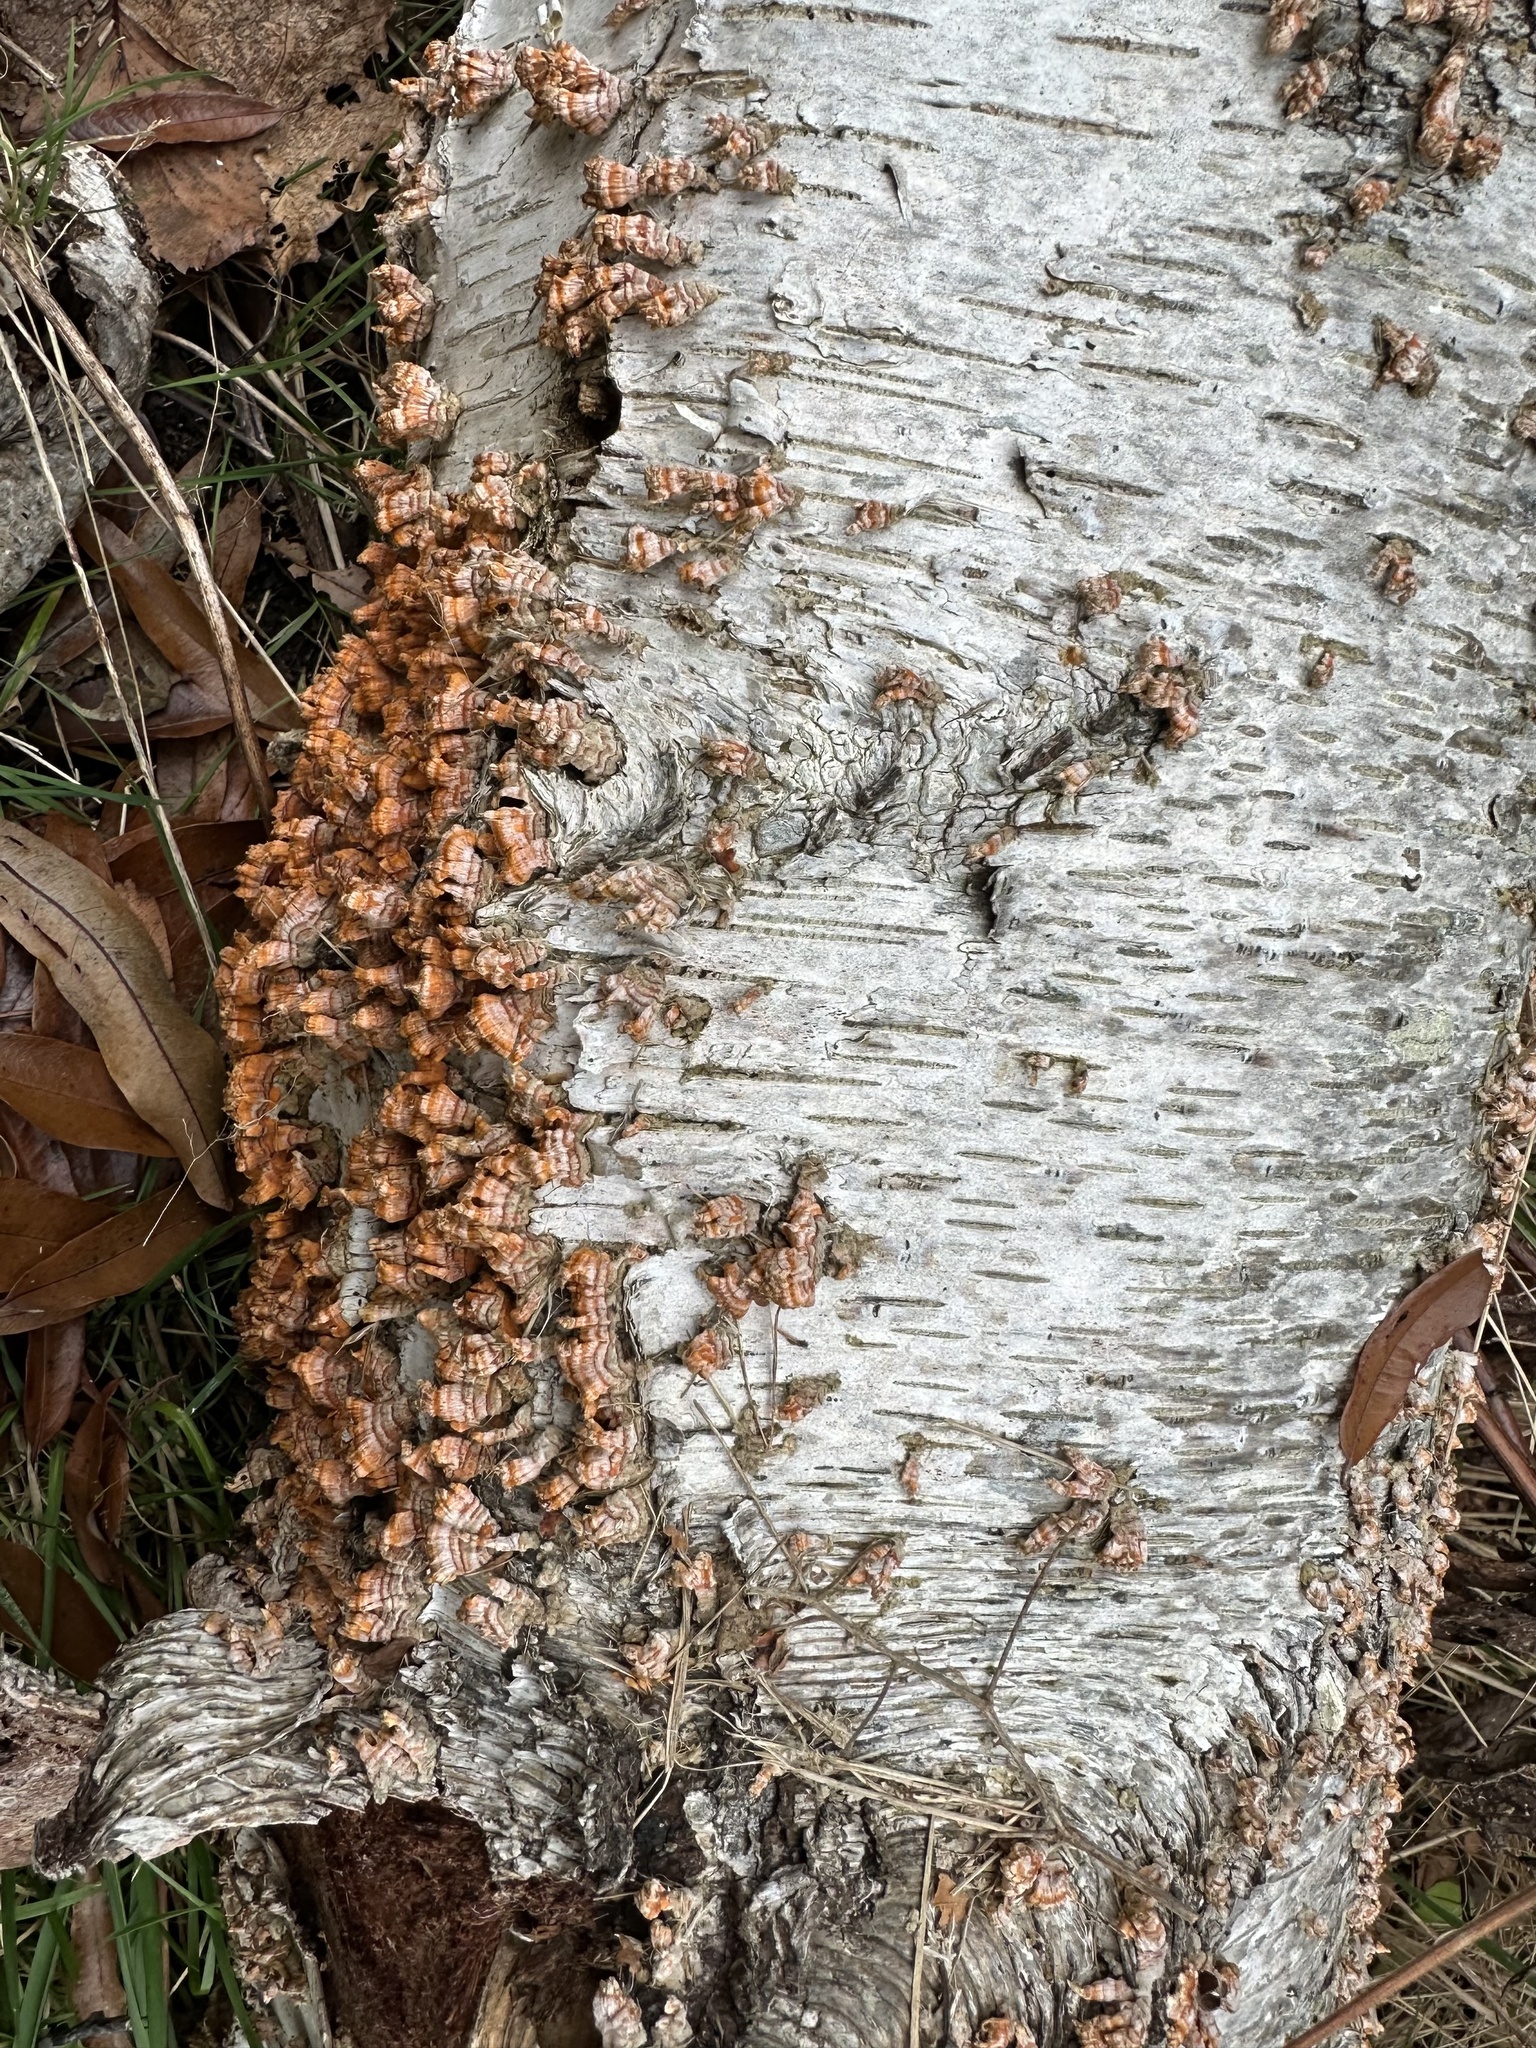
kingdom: Fungi
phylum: Basidiomycota
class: Agaricomycetes
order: Russulales
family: Stereaceae
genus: Stereum
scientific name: Stereum complicatum
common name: Crowded parchment
